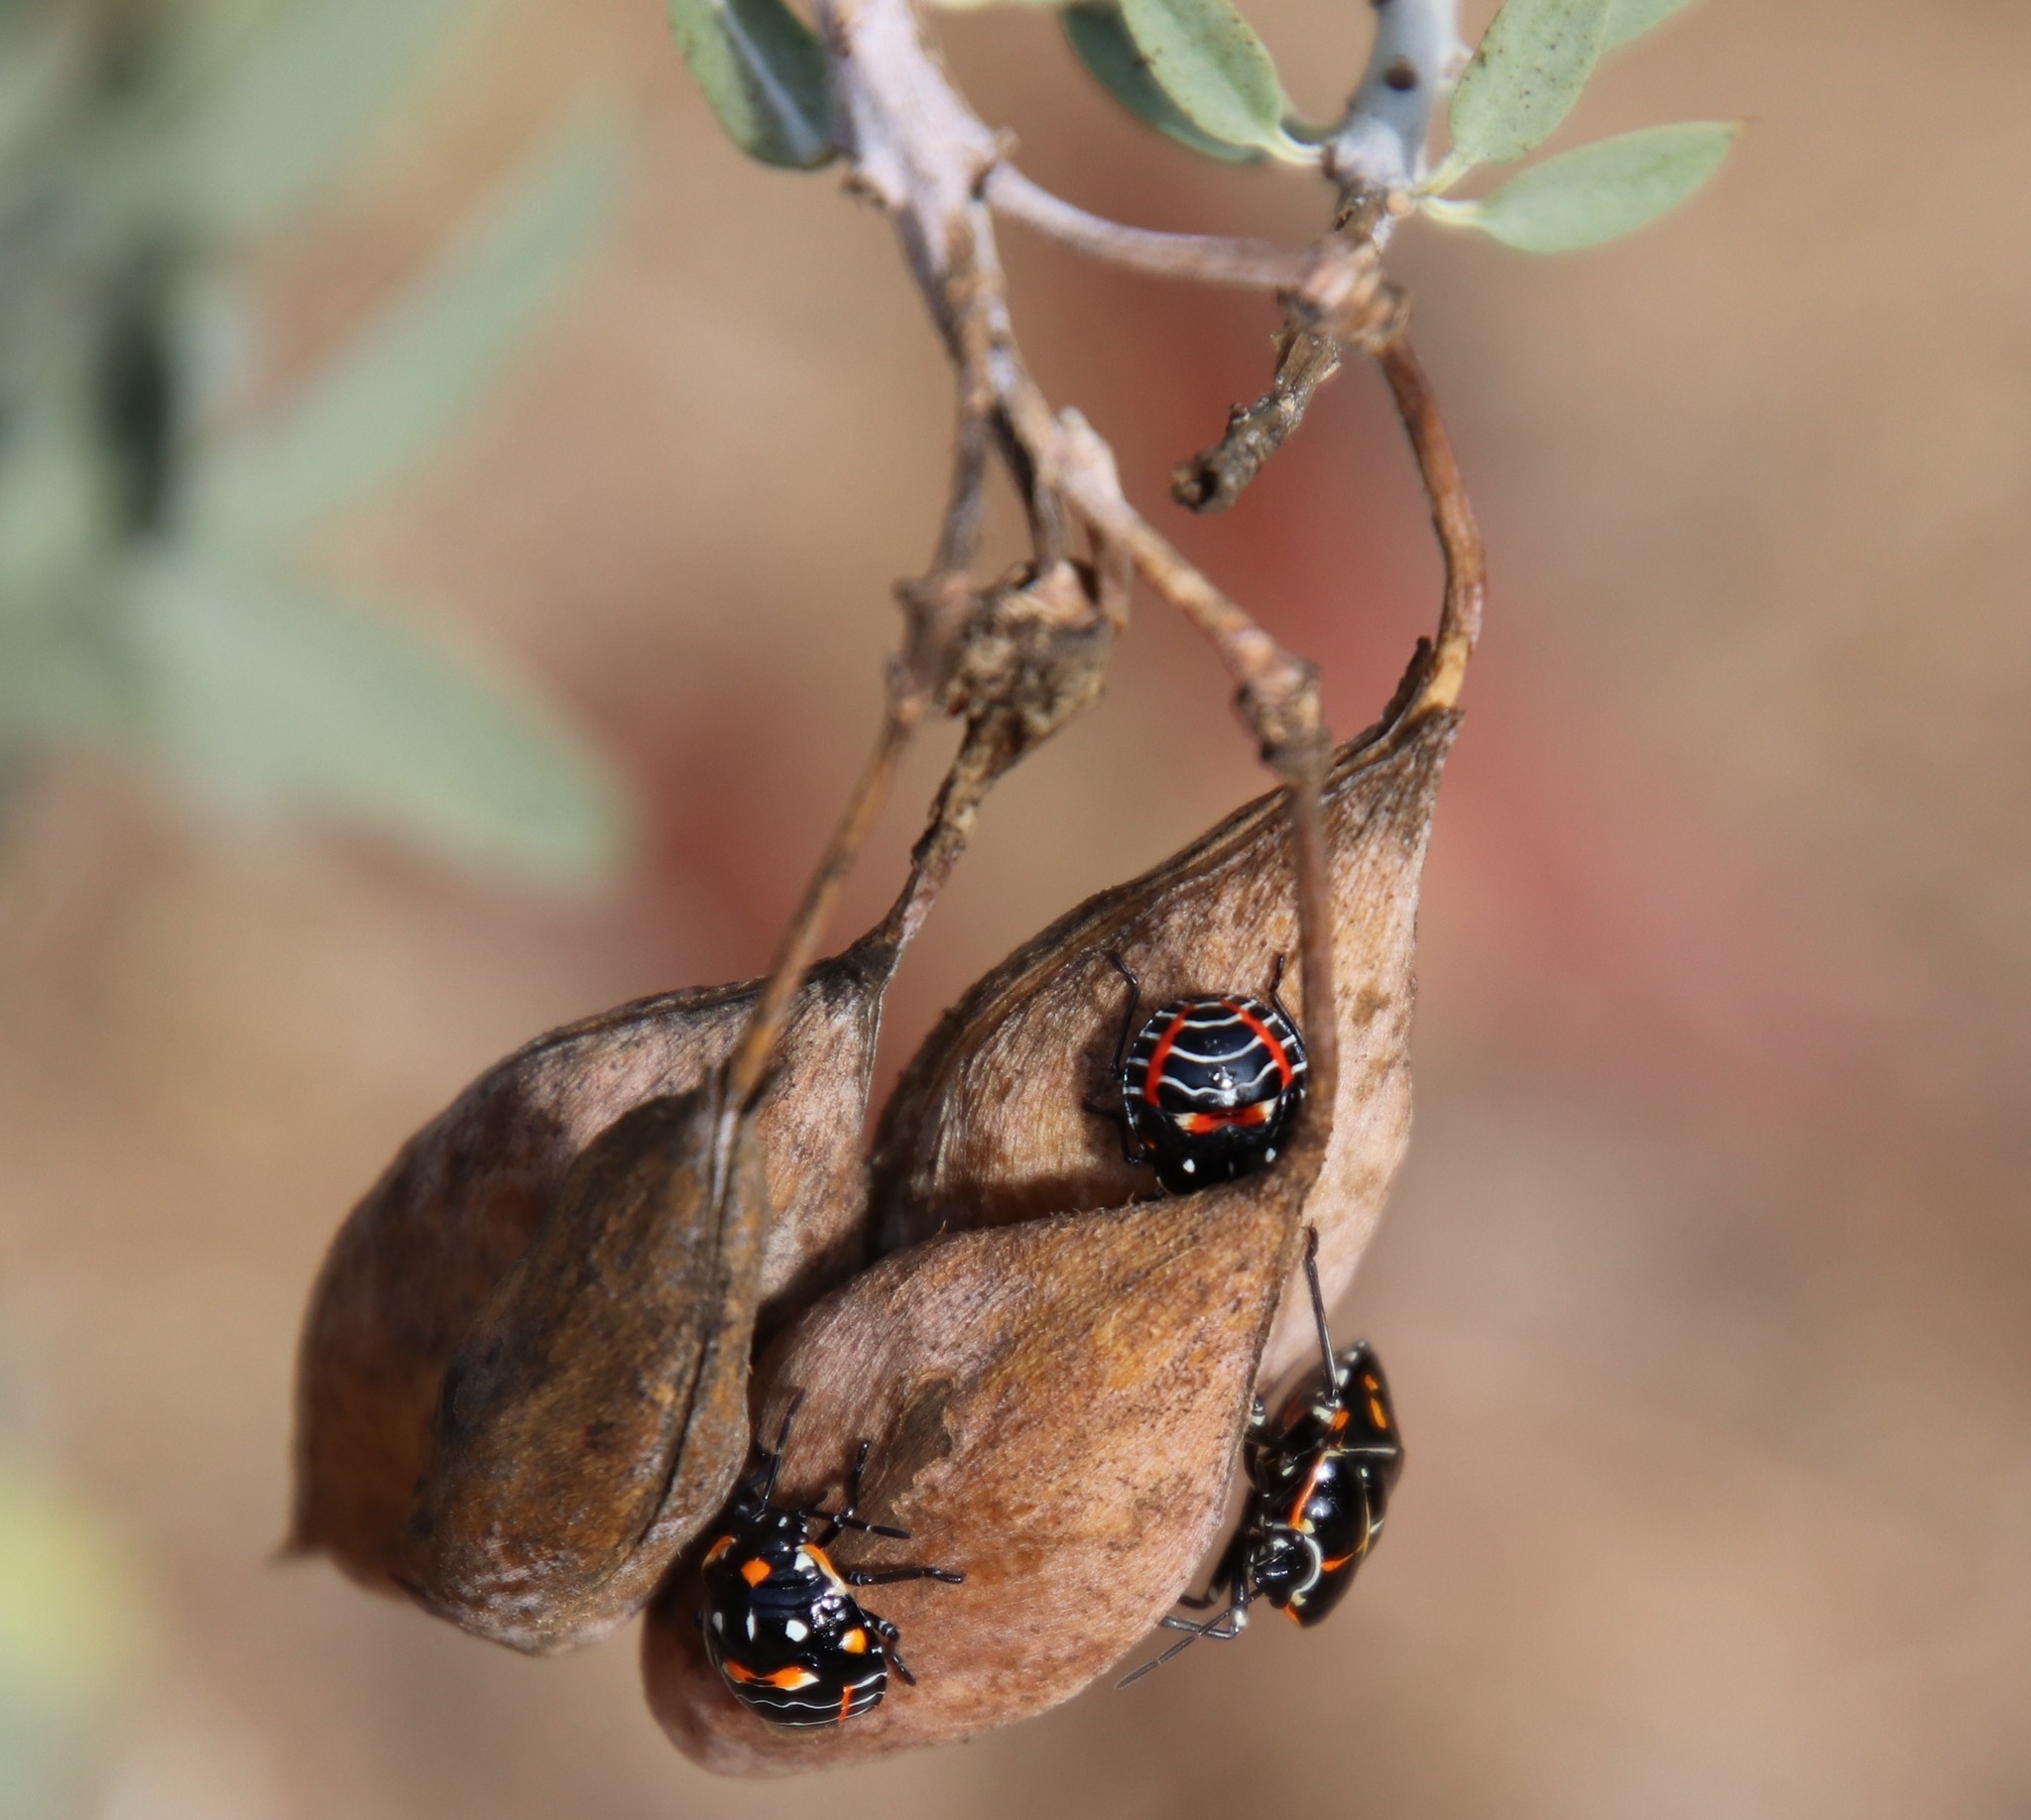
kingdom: Animalia
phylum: Arthropoda
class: Insecta
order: Hemiptera
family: Pentatomidae
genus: Murgantia
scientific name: Murgantia histrionica
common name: Harlequin bug
